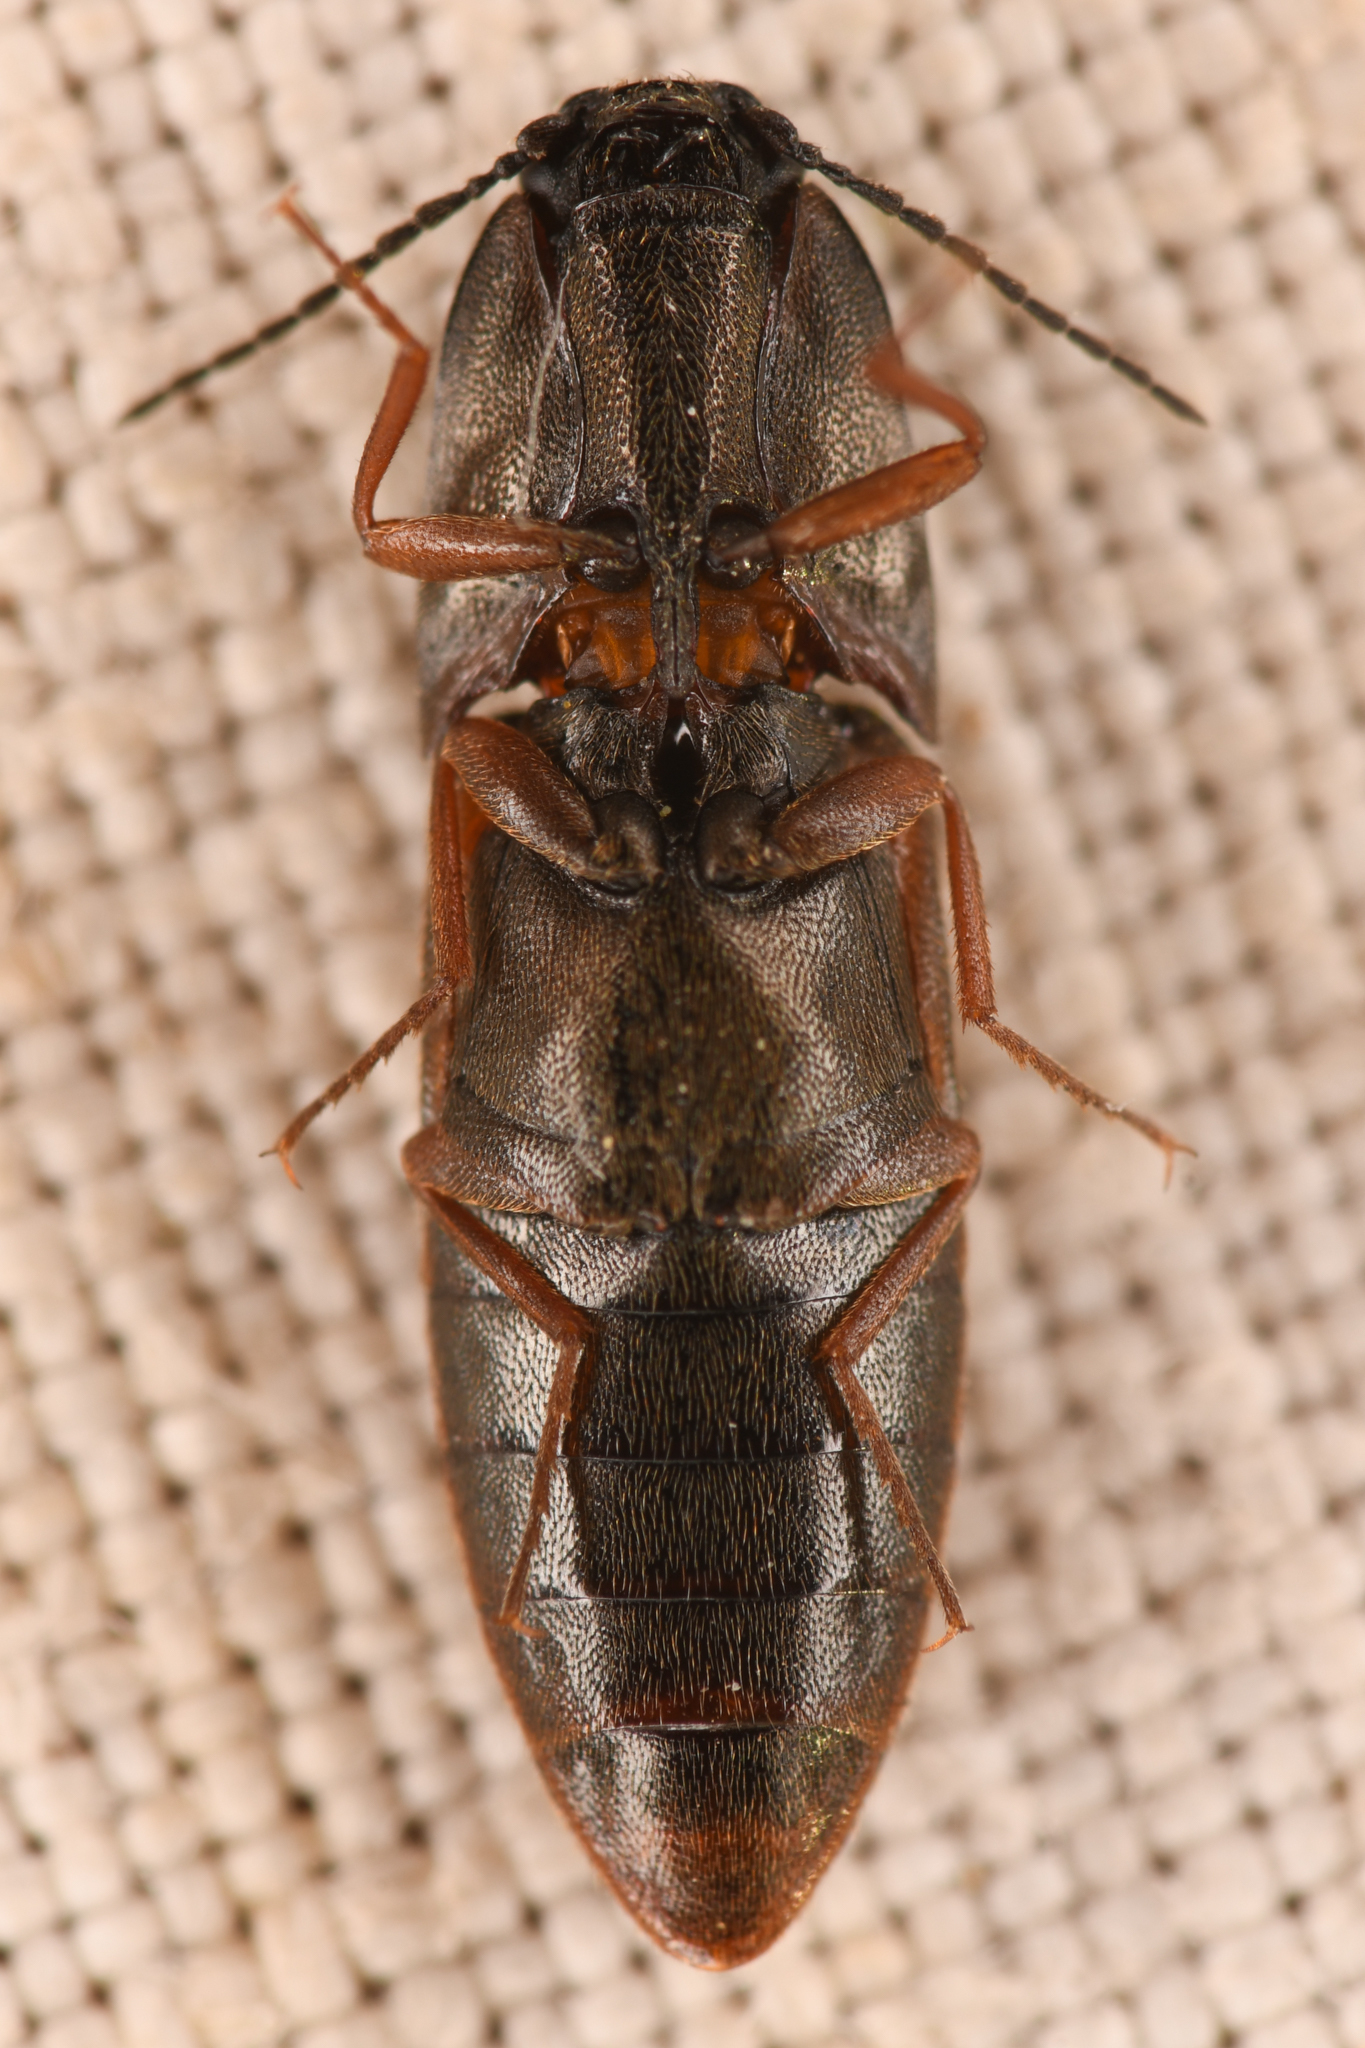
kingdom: Animalia
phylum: Arthropoda
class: Insecta
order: Coleoptera
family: Elateridae
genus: Sericus
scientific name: Sericus incongruus
